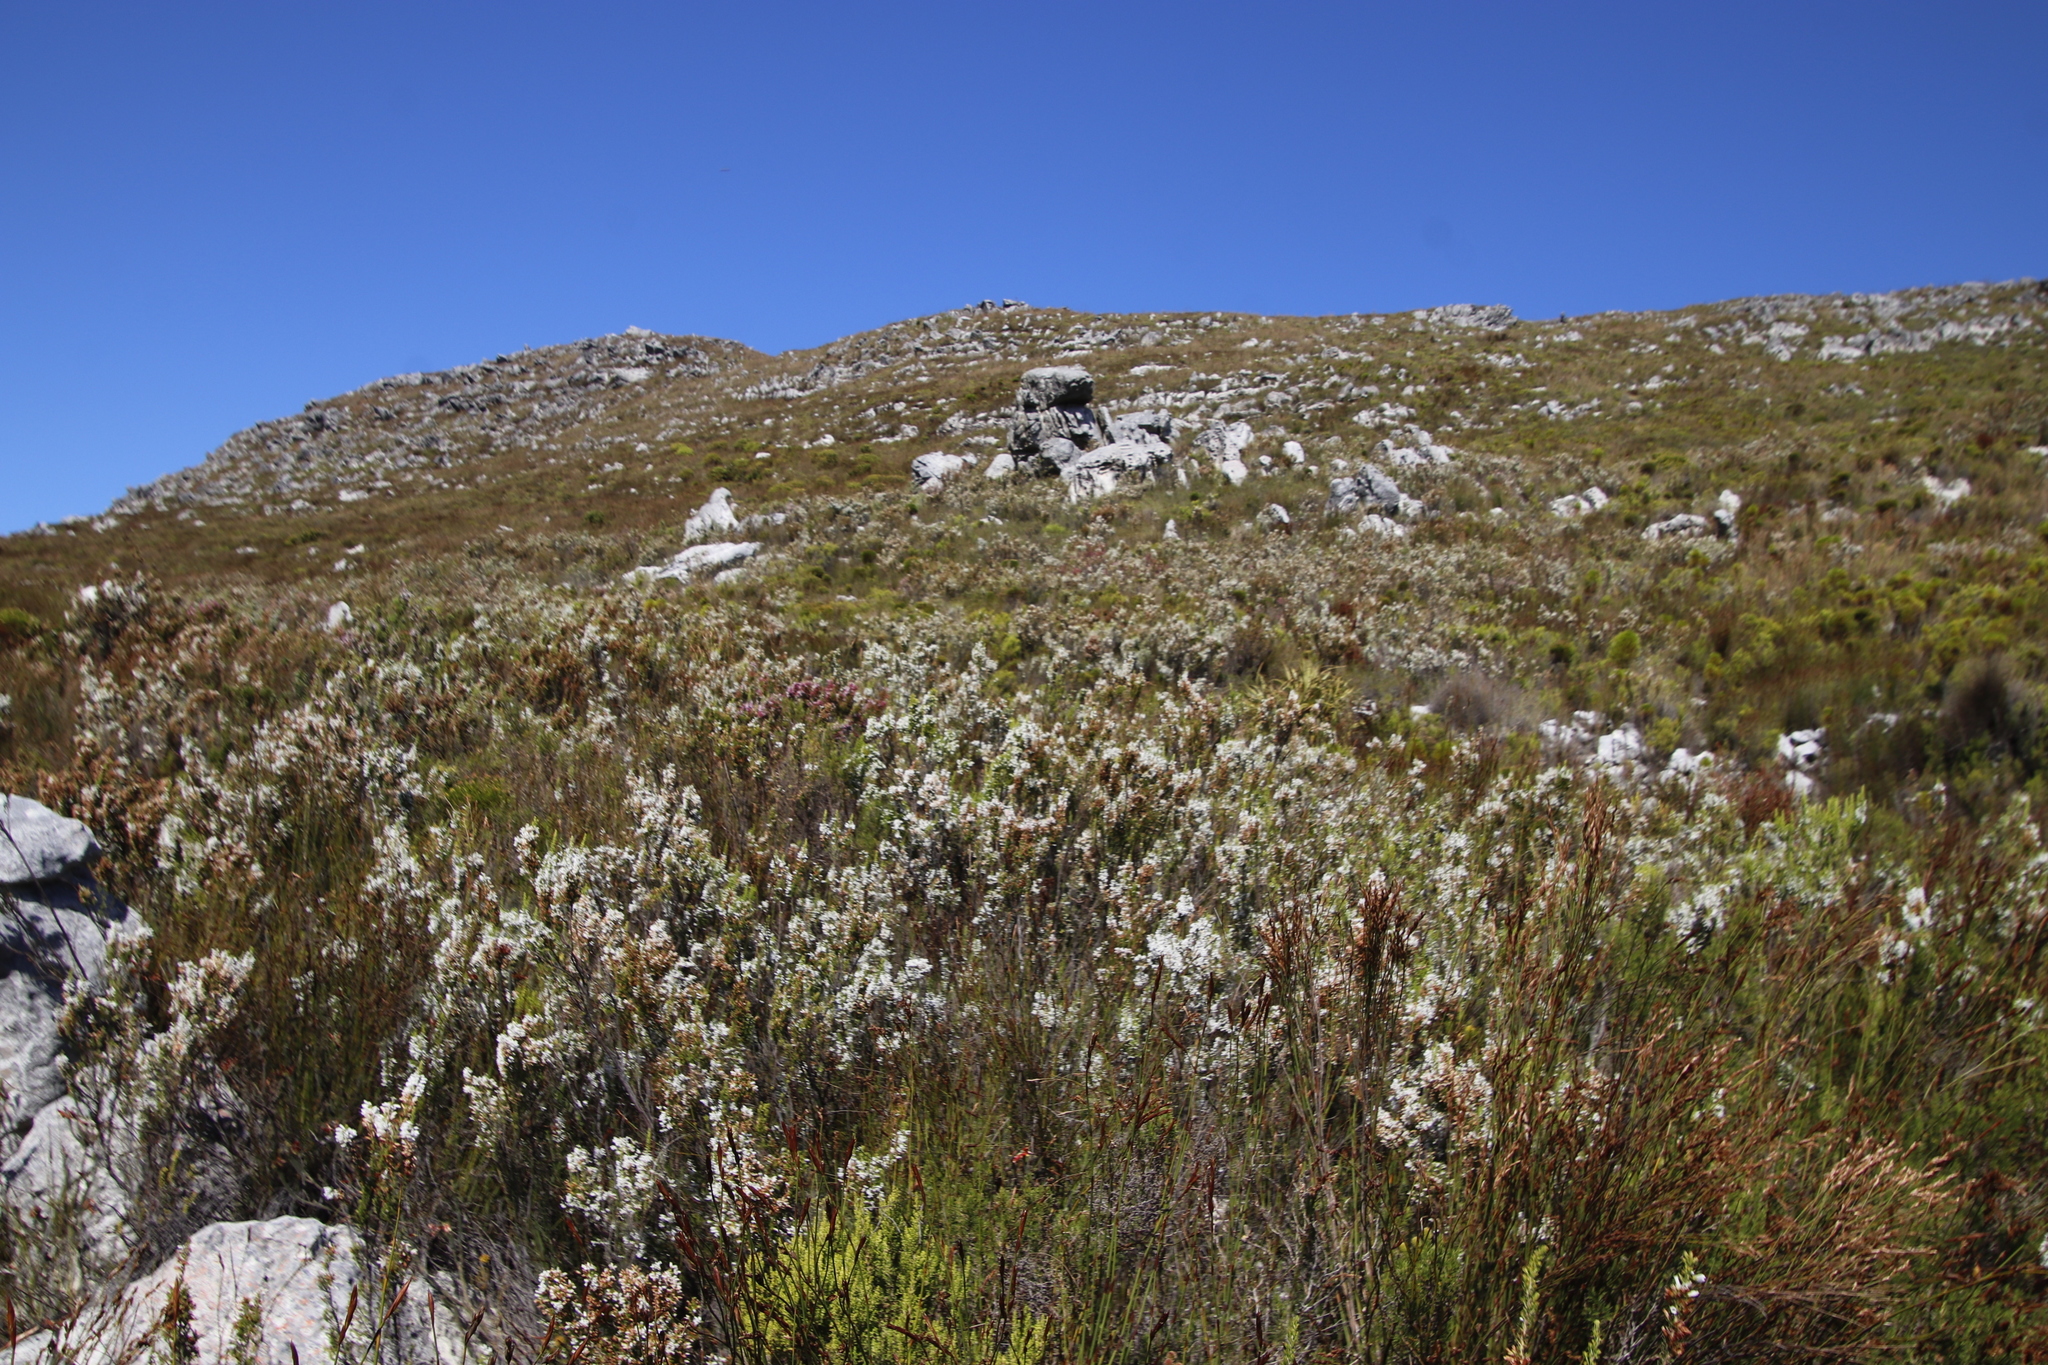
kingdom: Plantae
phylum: Tracheophyta
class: Magnoliopsida
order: Ericales
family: Ericaceae
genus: Erica
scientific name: Erica sitiens
